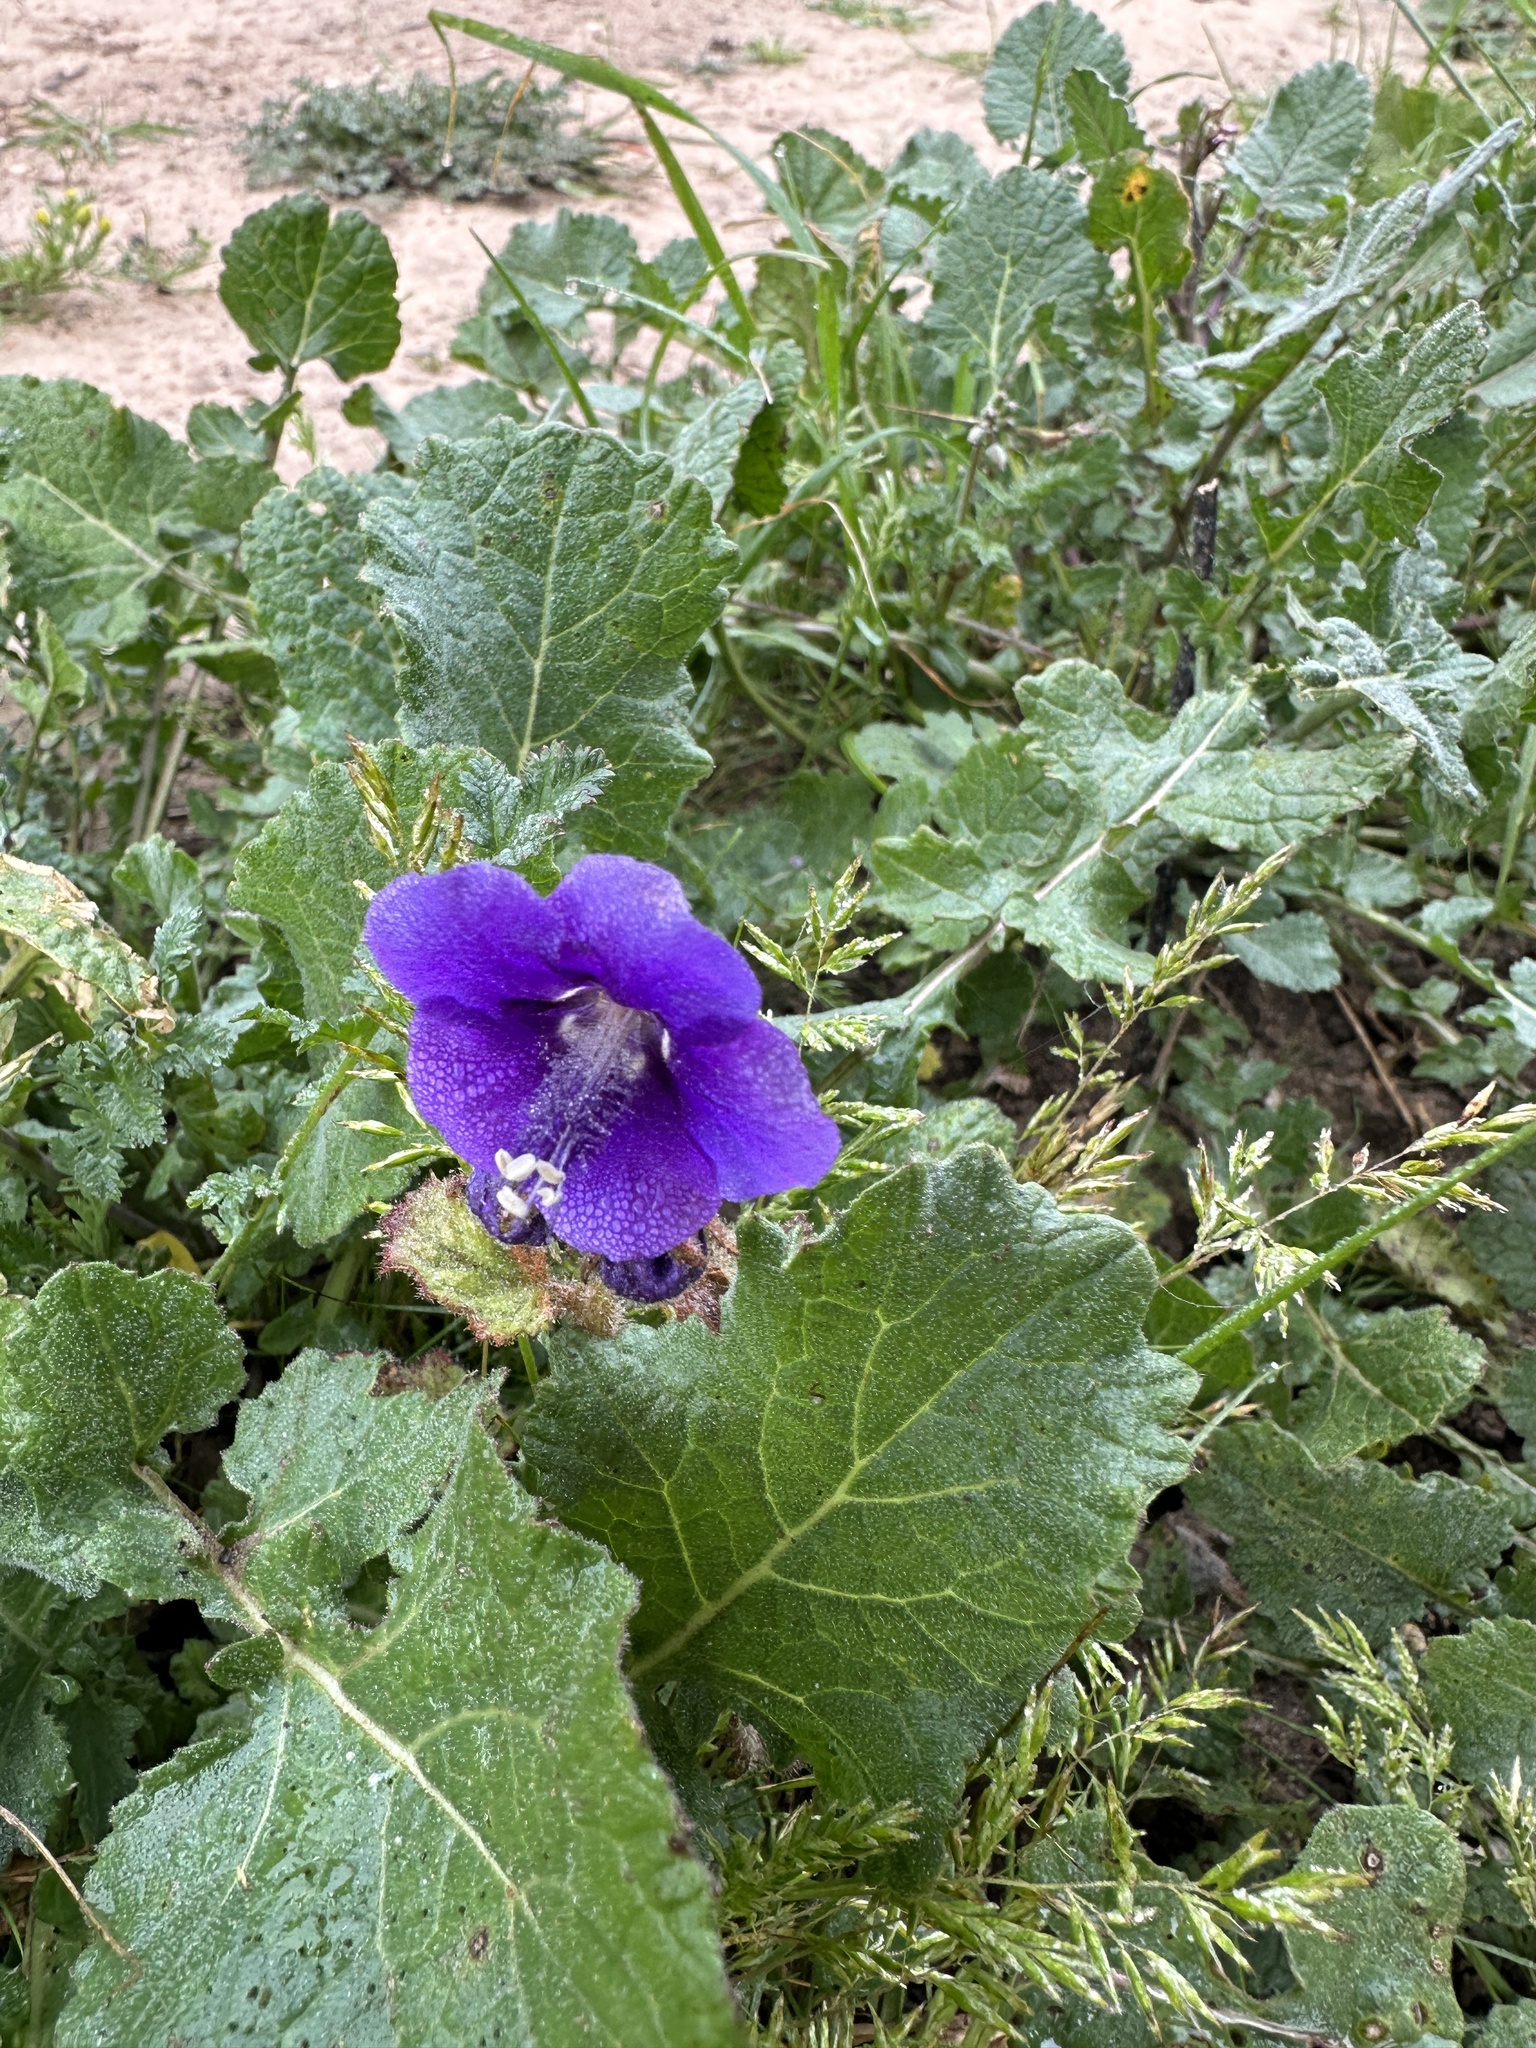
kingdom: Plantae
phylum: Tracheophyta
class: Magnoliopsida
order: Boraginales
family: Hydrophyllaceae
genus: Phacelia
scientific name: Phacelia parryi
